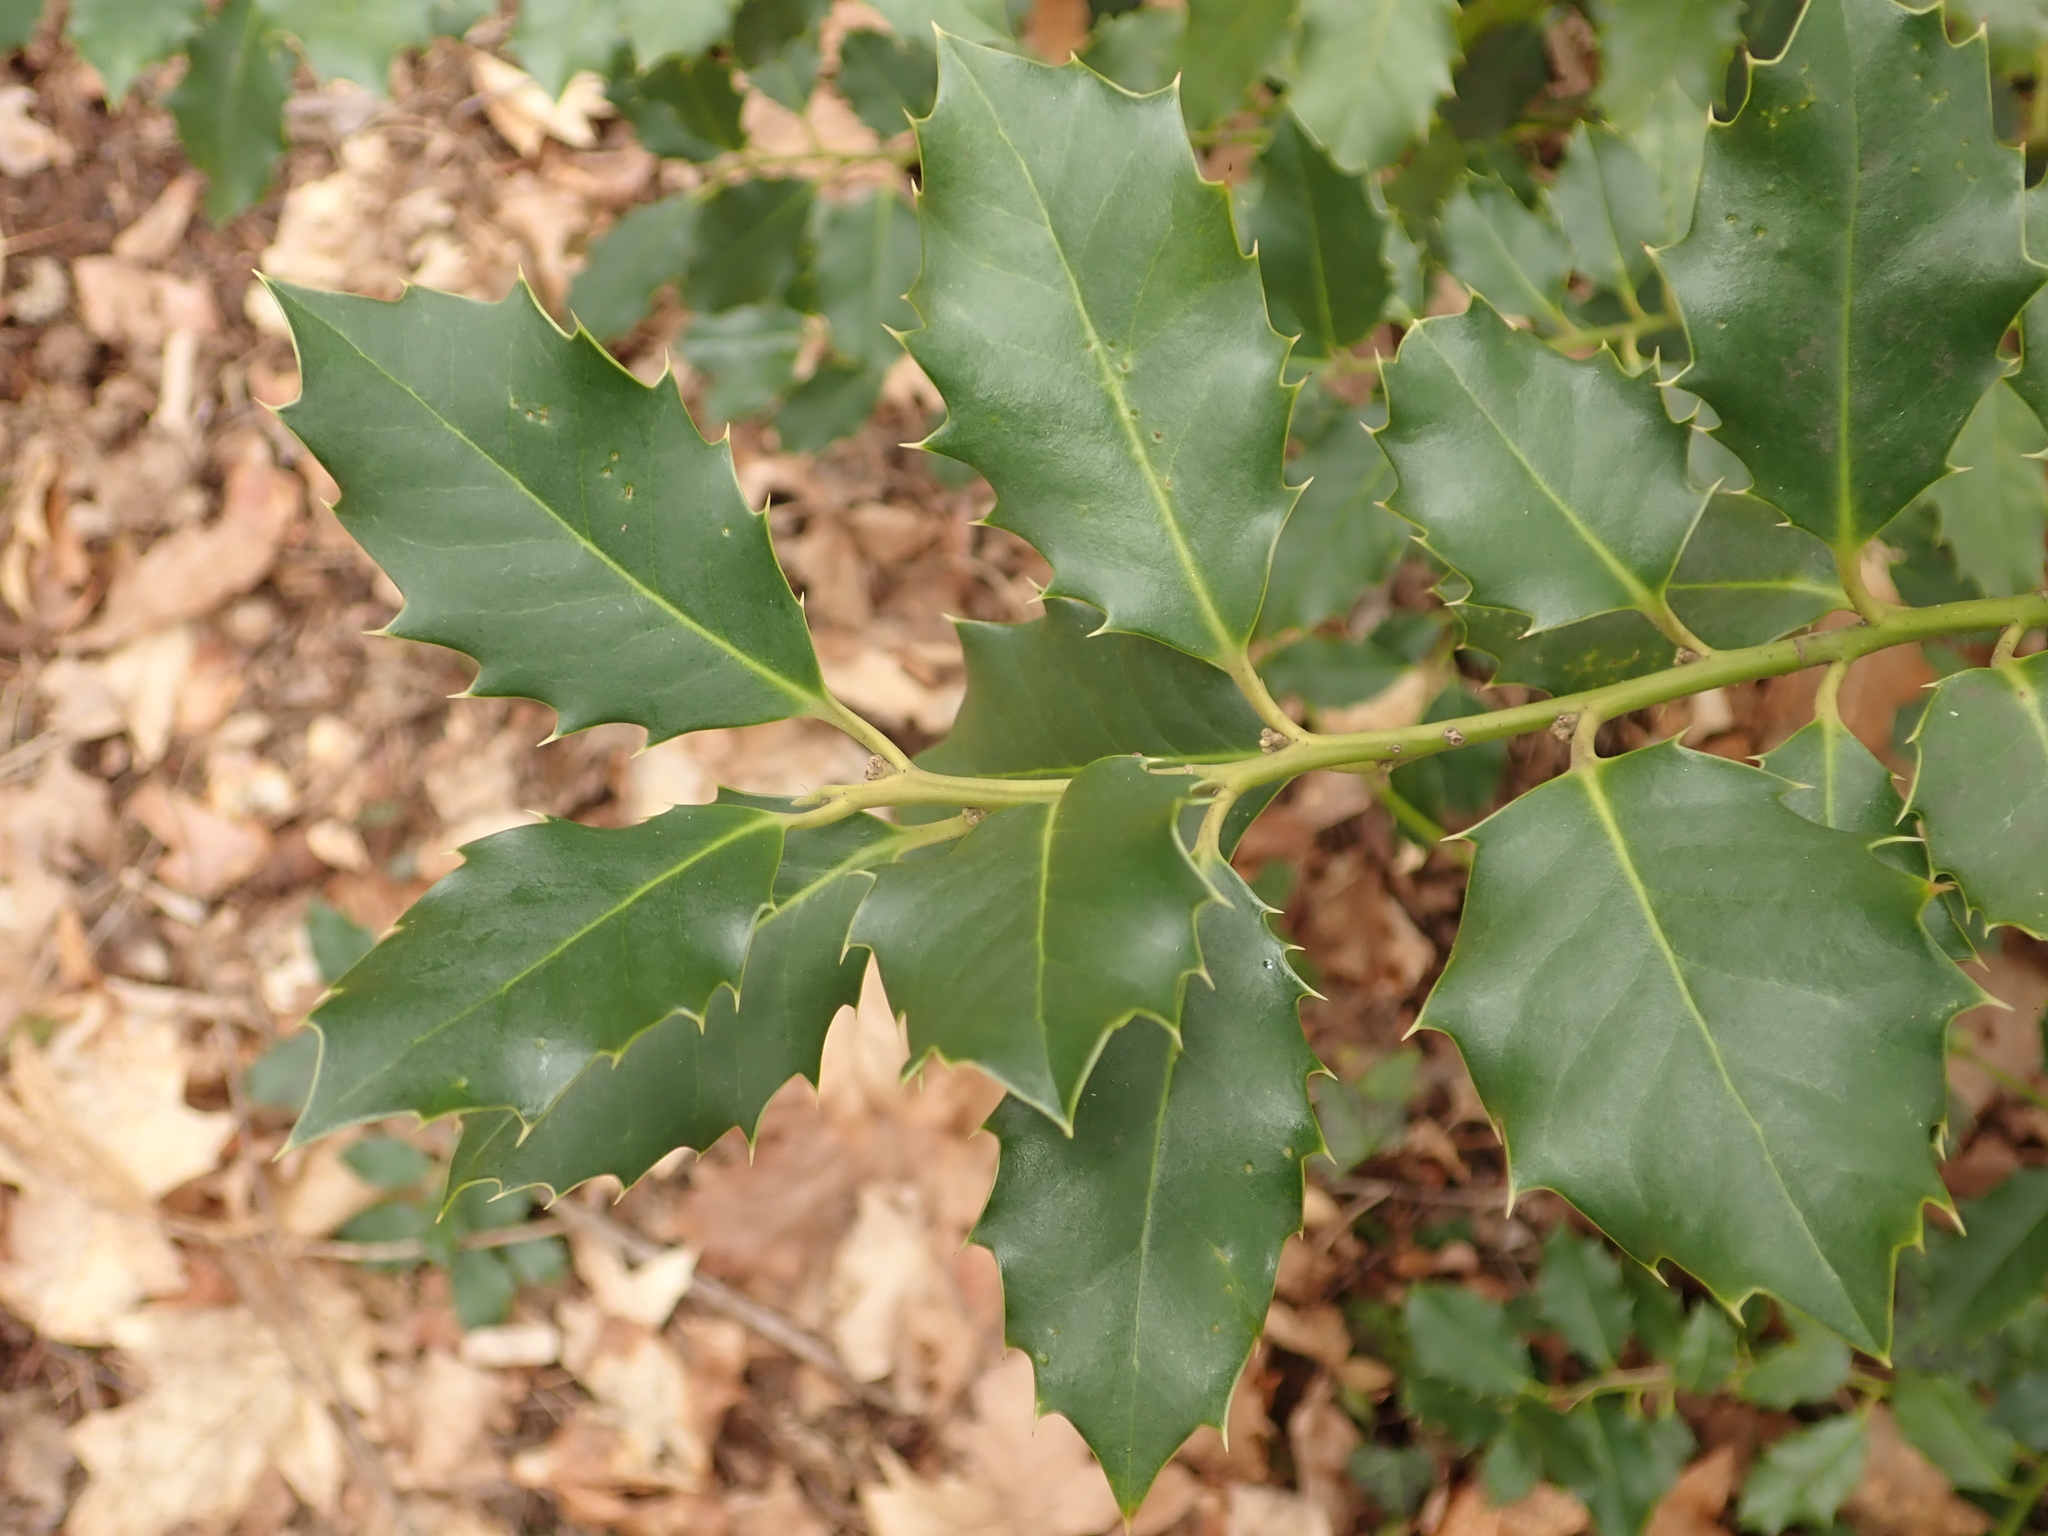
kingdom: Plantae
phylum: Tracheophyta
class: Magnoliopsida
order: Aquifoliales
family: Aquifoliaceae
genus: Ilex
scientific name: Ilex aquifolium
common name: English holly
